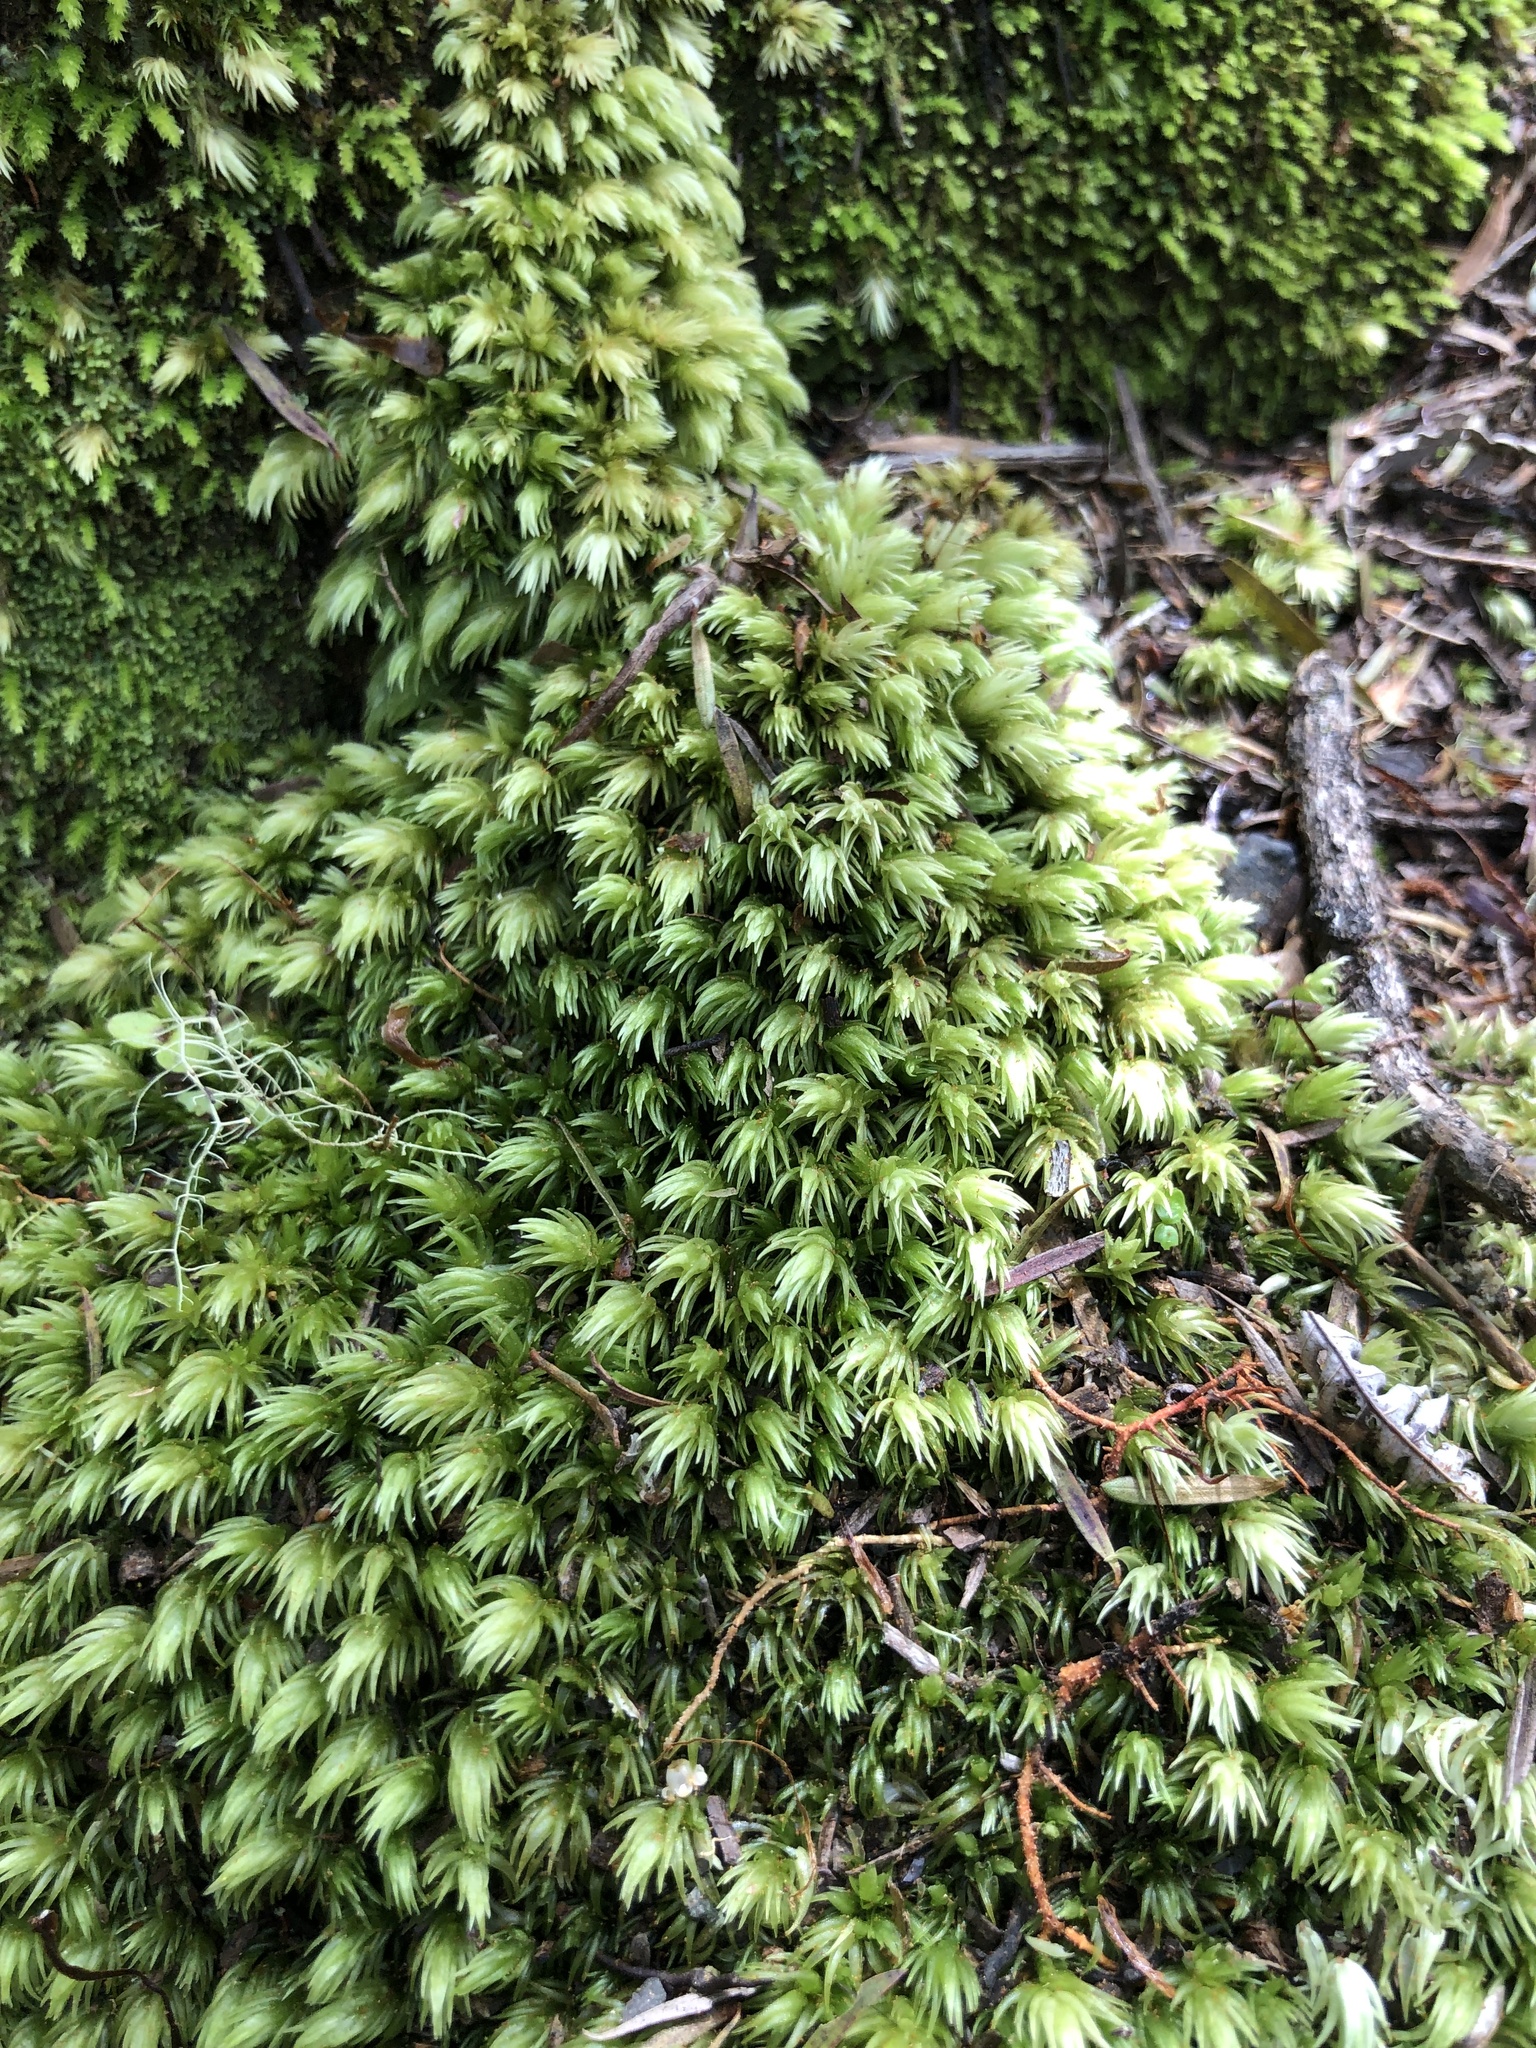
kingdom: Plantae
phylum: Bryophyta
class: Bryopsida
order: Dicranales
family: Leucobryaceae
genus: Leucobryum
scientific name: Leucobryum javense
